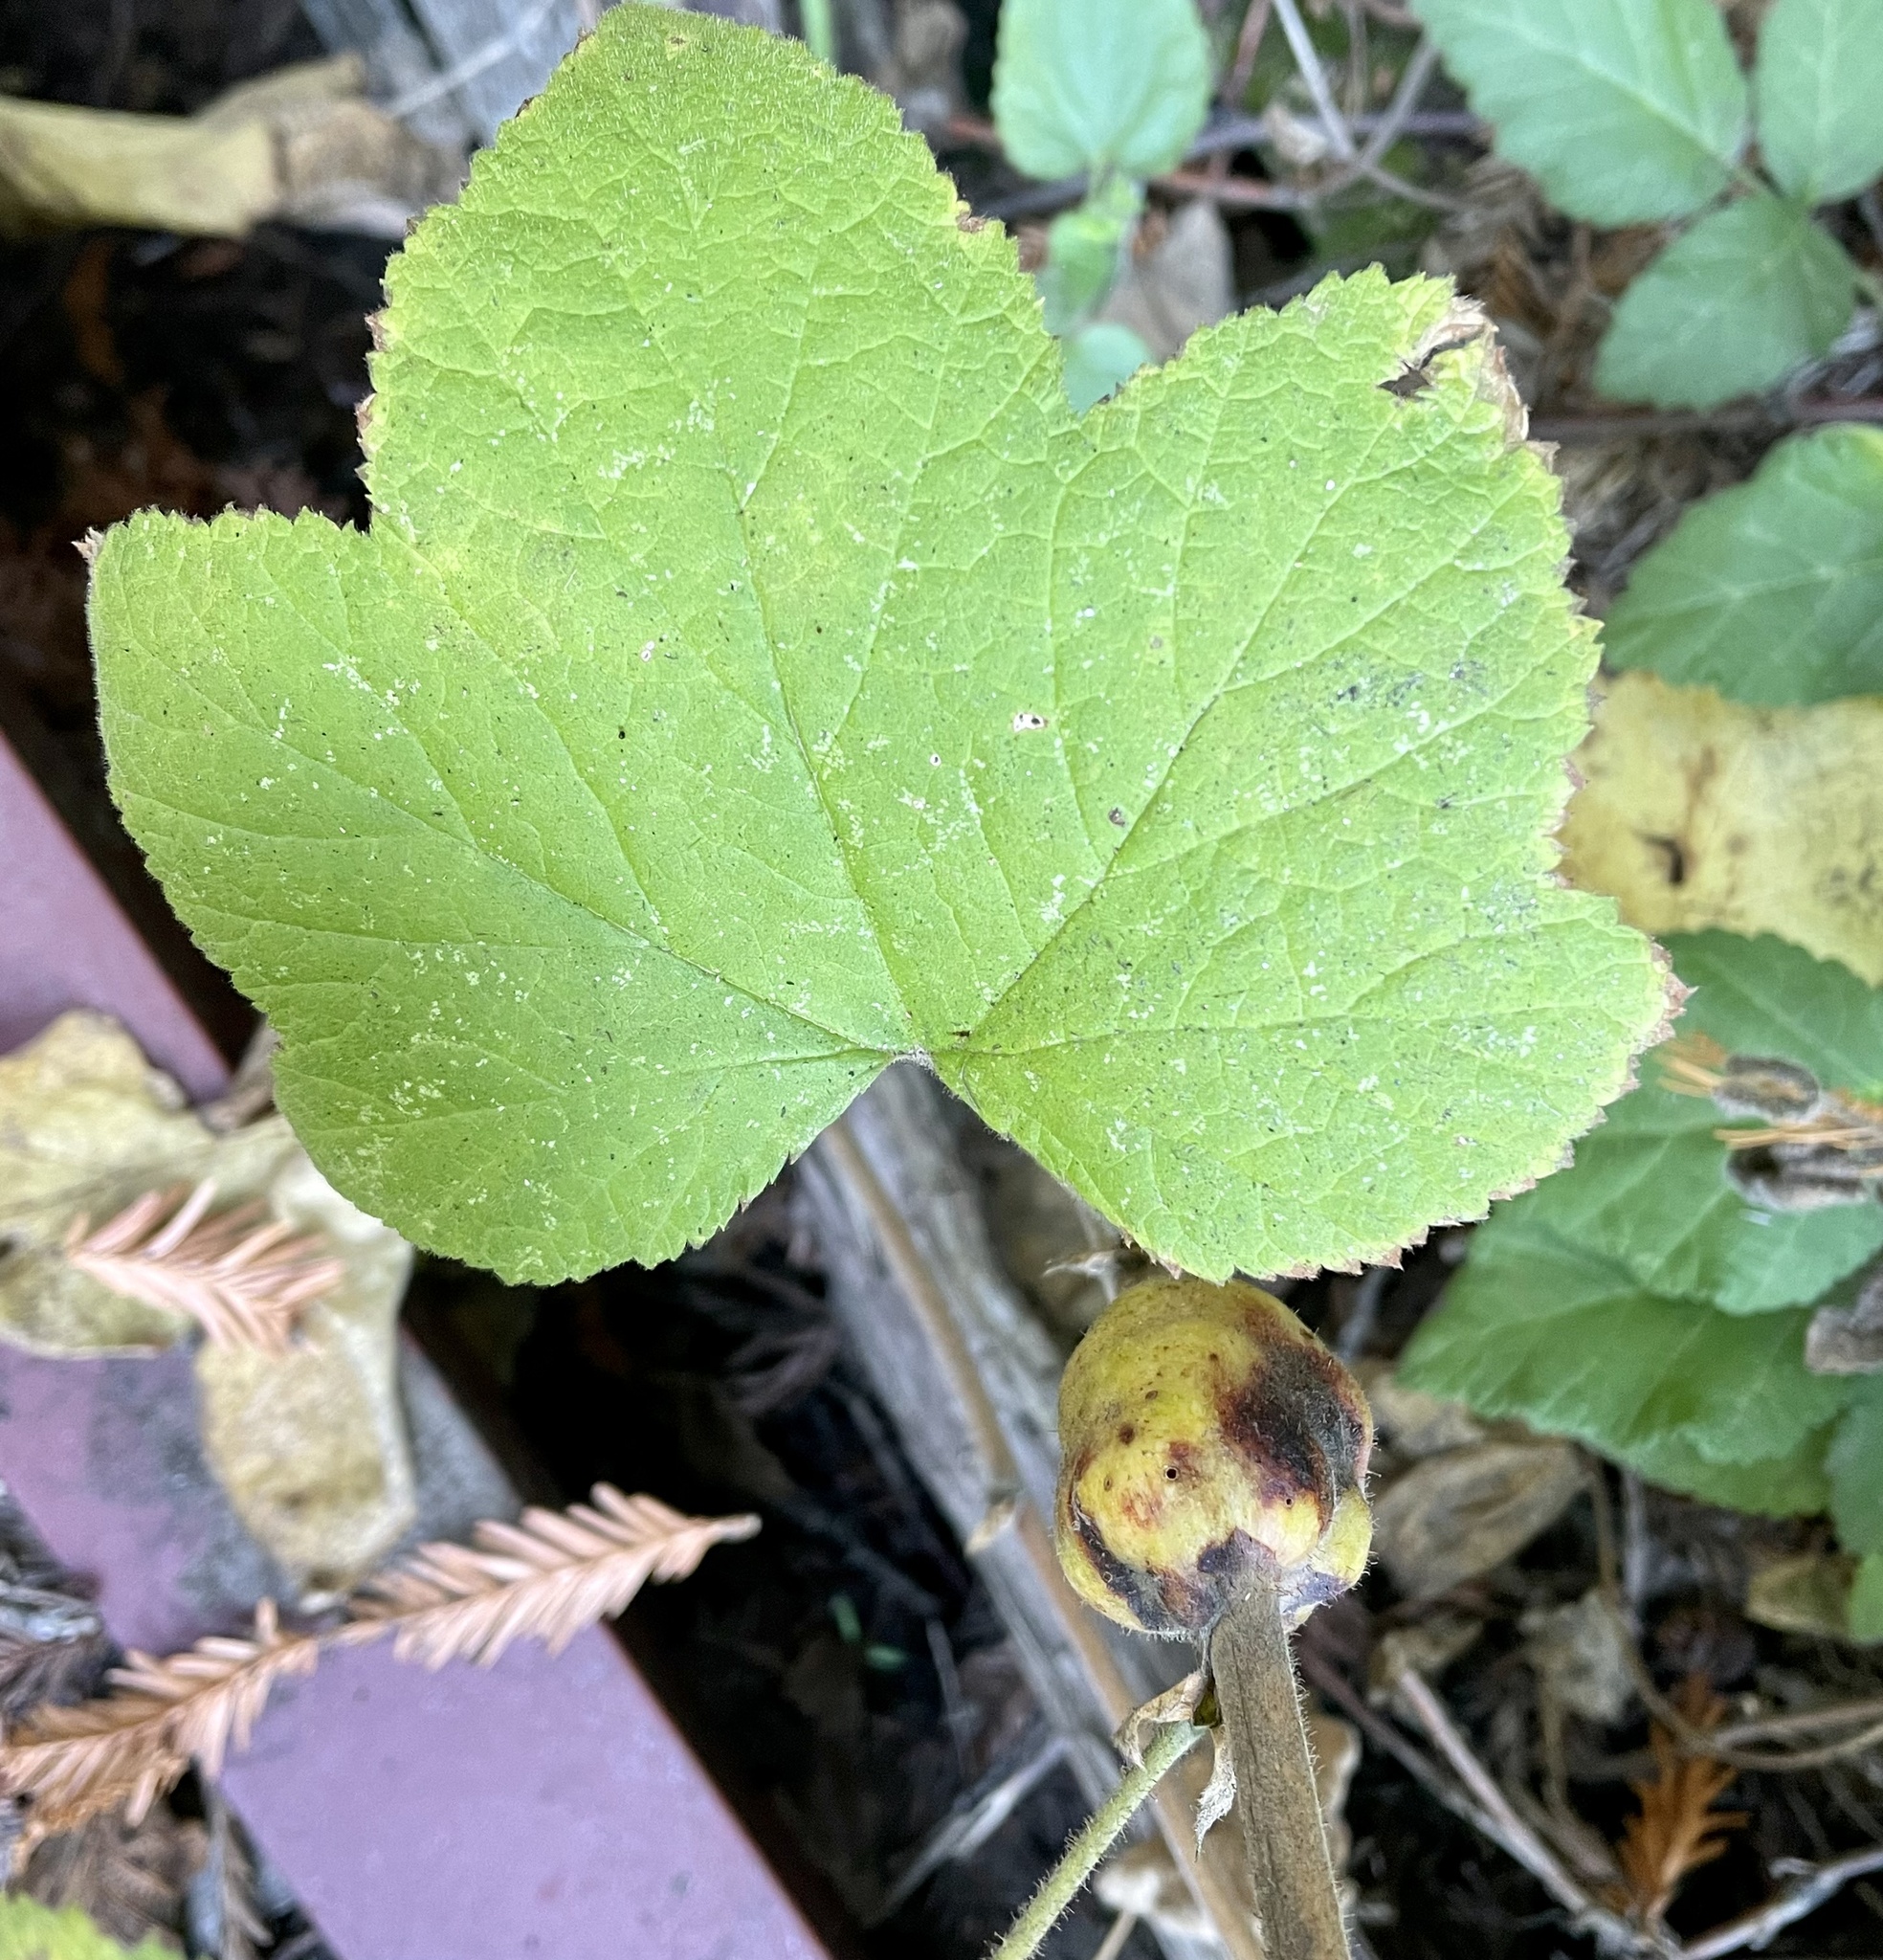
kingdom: Plantae
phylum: Tracheophyta
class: Magnoliopsida
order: Rosales
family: Rosaceae
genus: Rubus
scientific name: Rubus parviflorus
